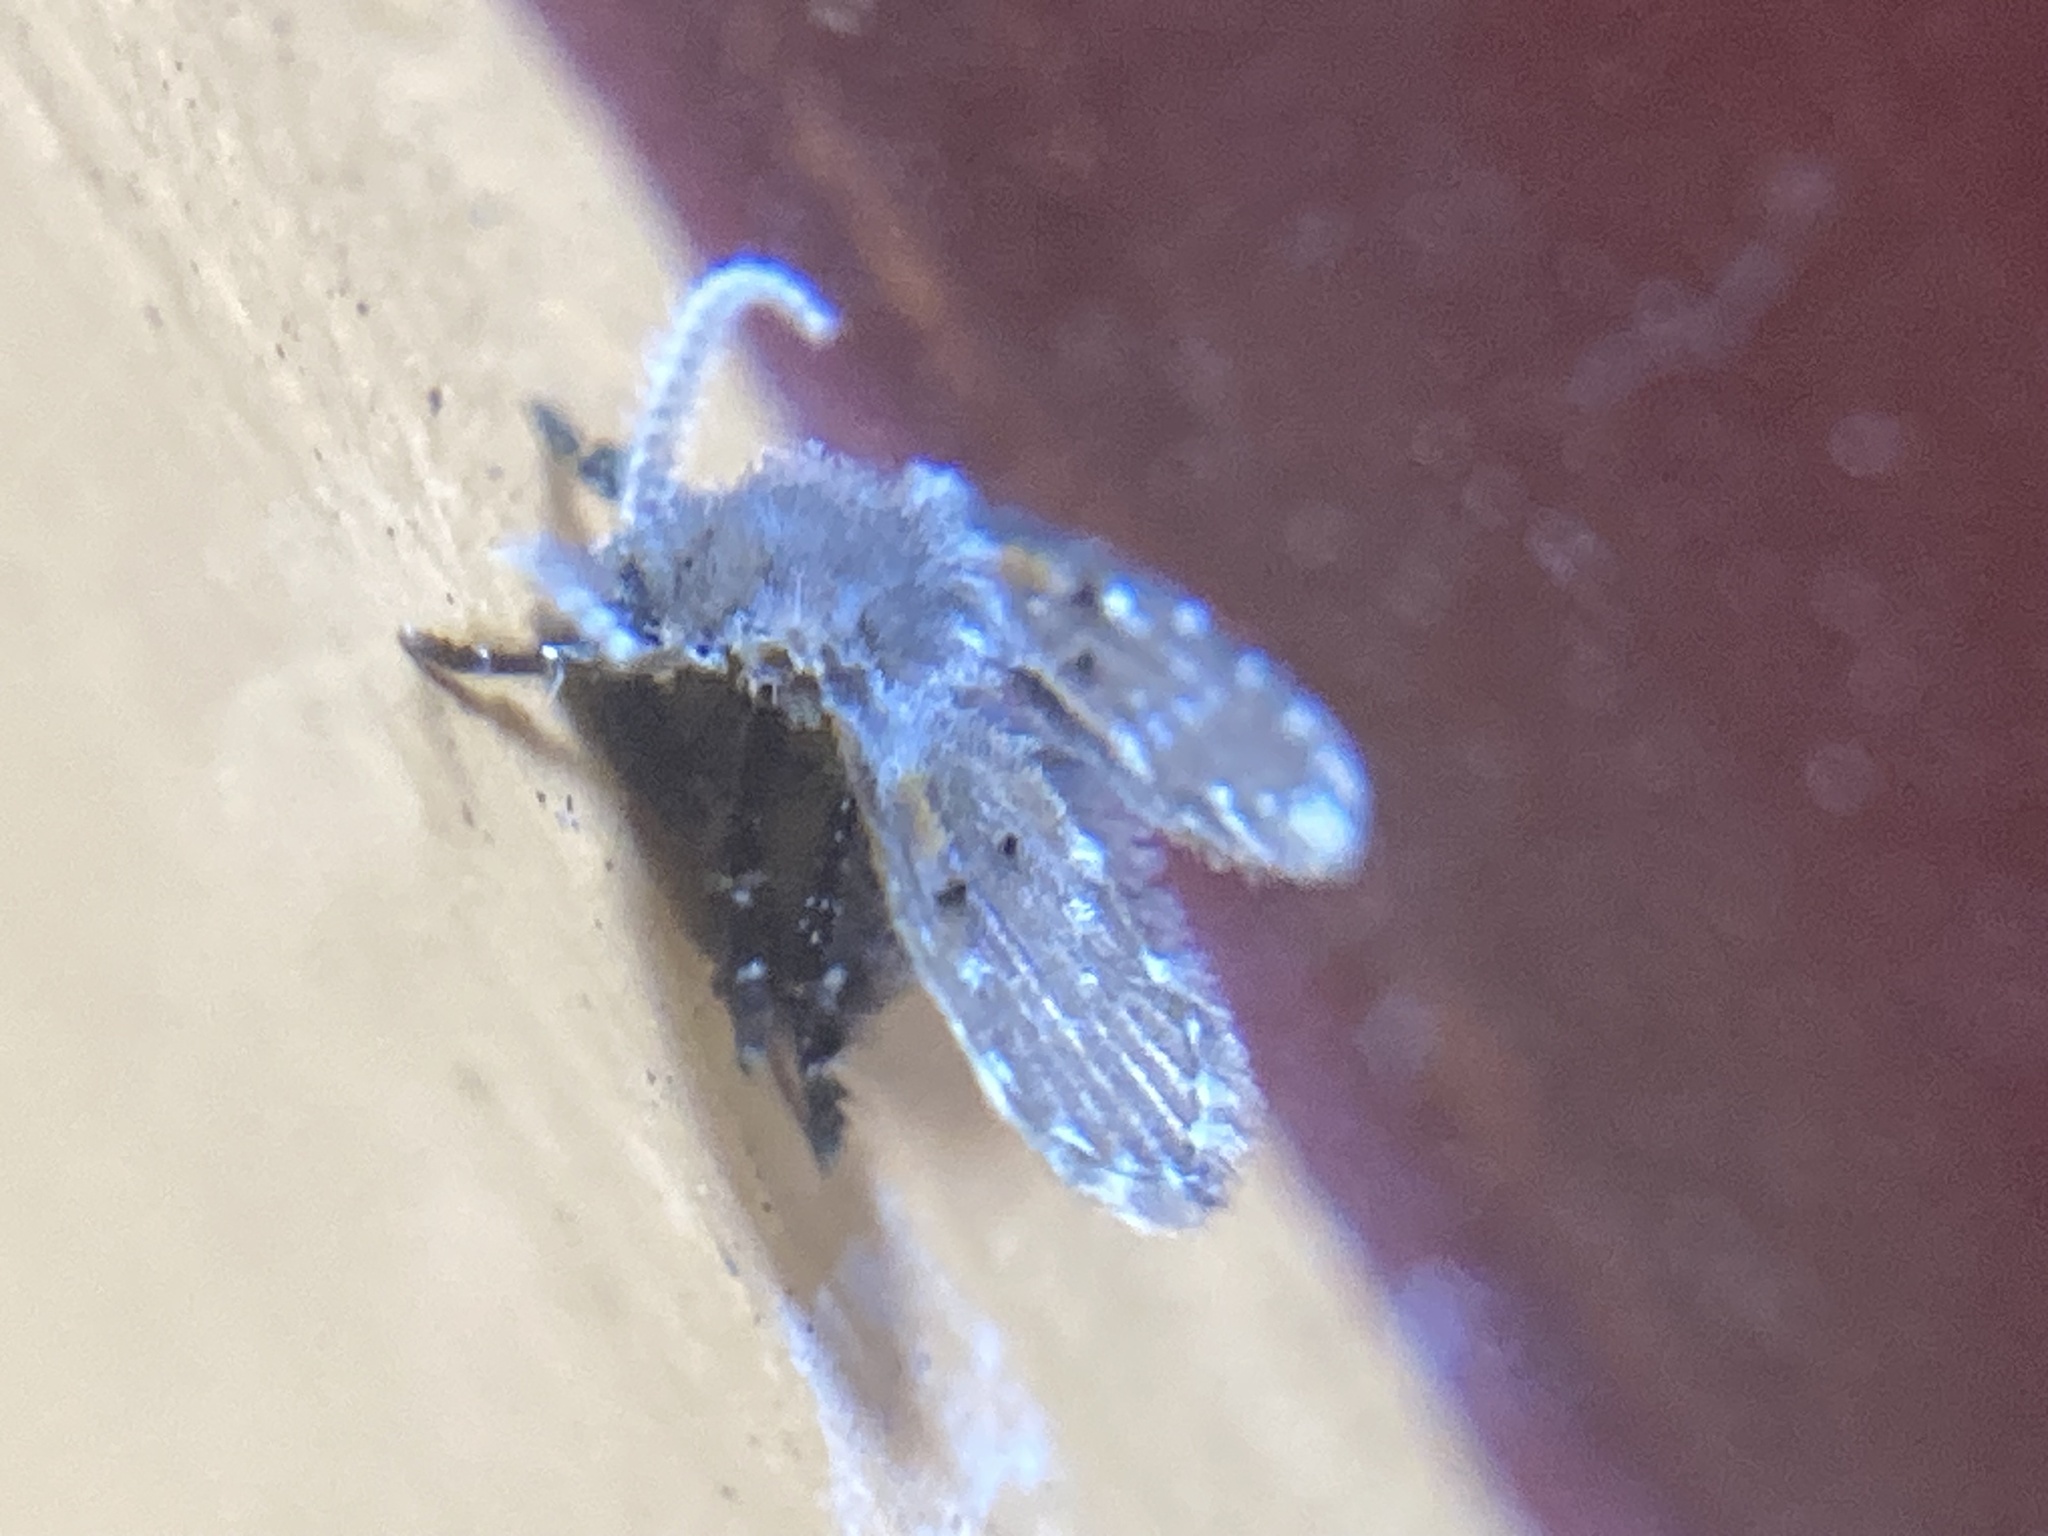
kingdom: Animalia
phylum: Arthropoda
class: Insecta
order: Diptera
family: Psychodidae
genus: Clogmia
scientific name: Clogmia albipunctatus
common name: White-spotted moth fly
